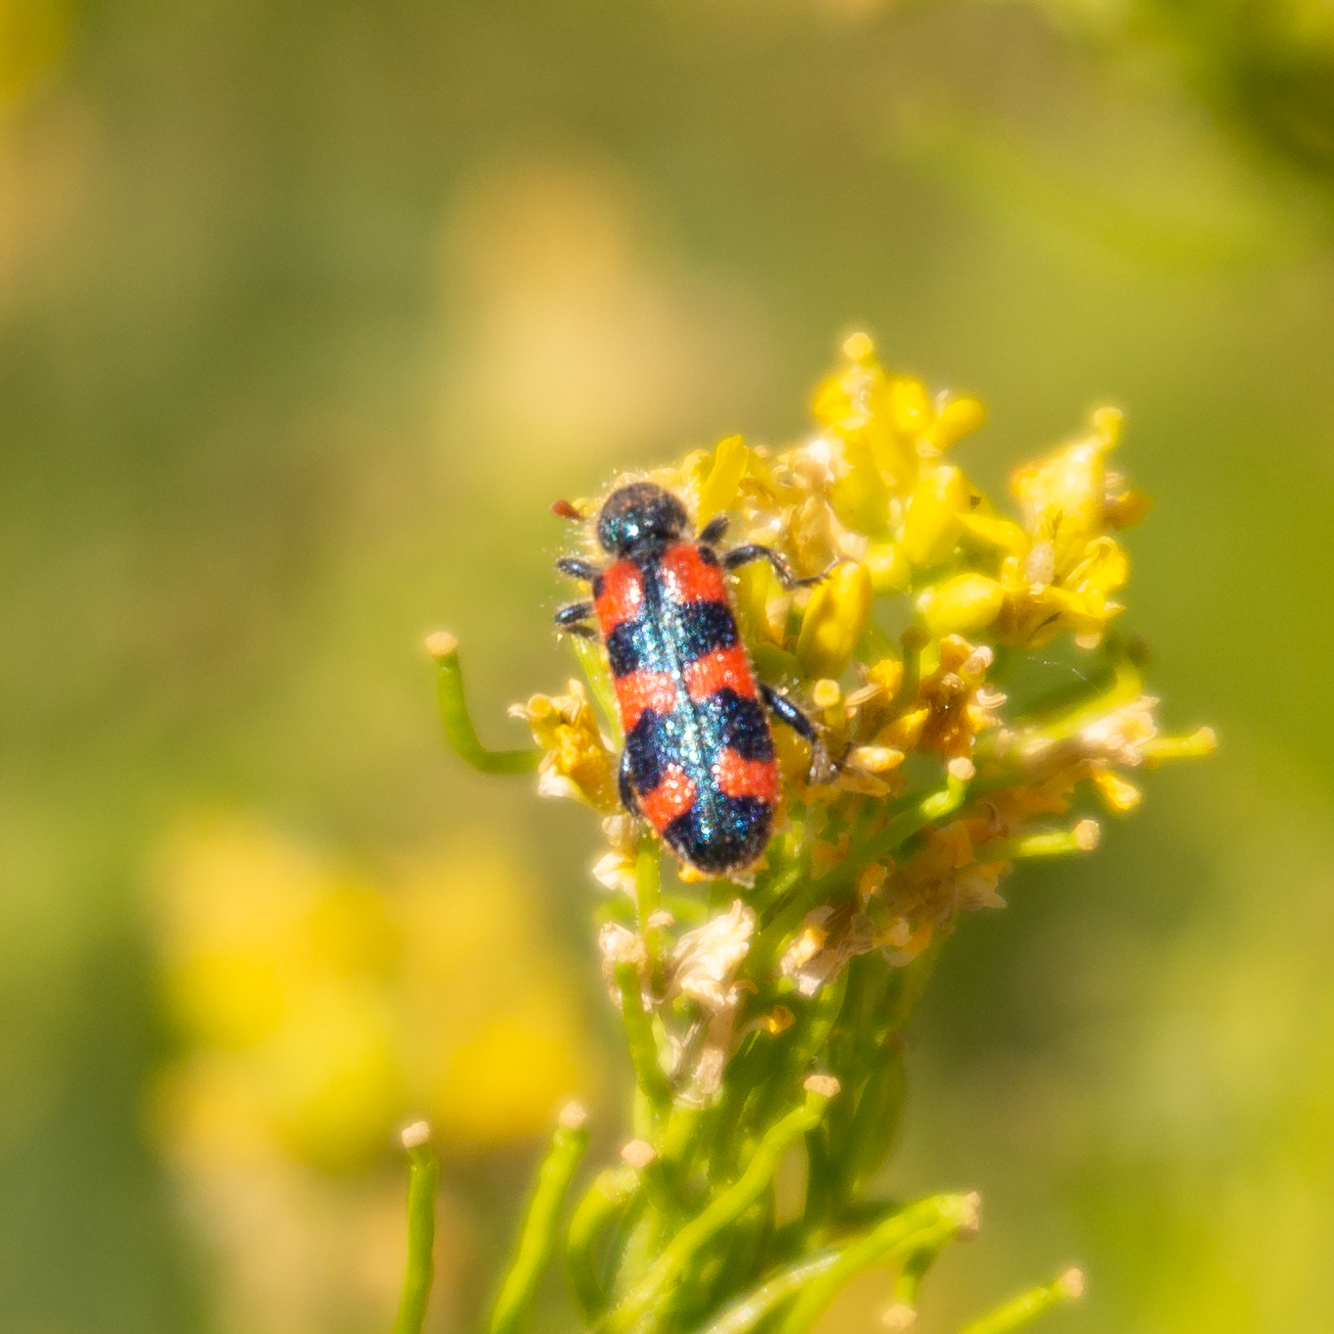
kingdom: Animalia
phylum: Arthropoda
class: Insecta
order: Coleoptera
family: Cleridae
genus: Trichodes
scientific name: Trichodes leucopsideus
